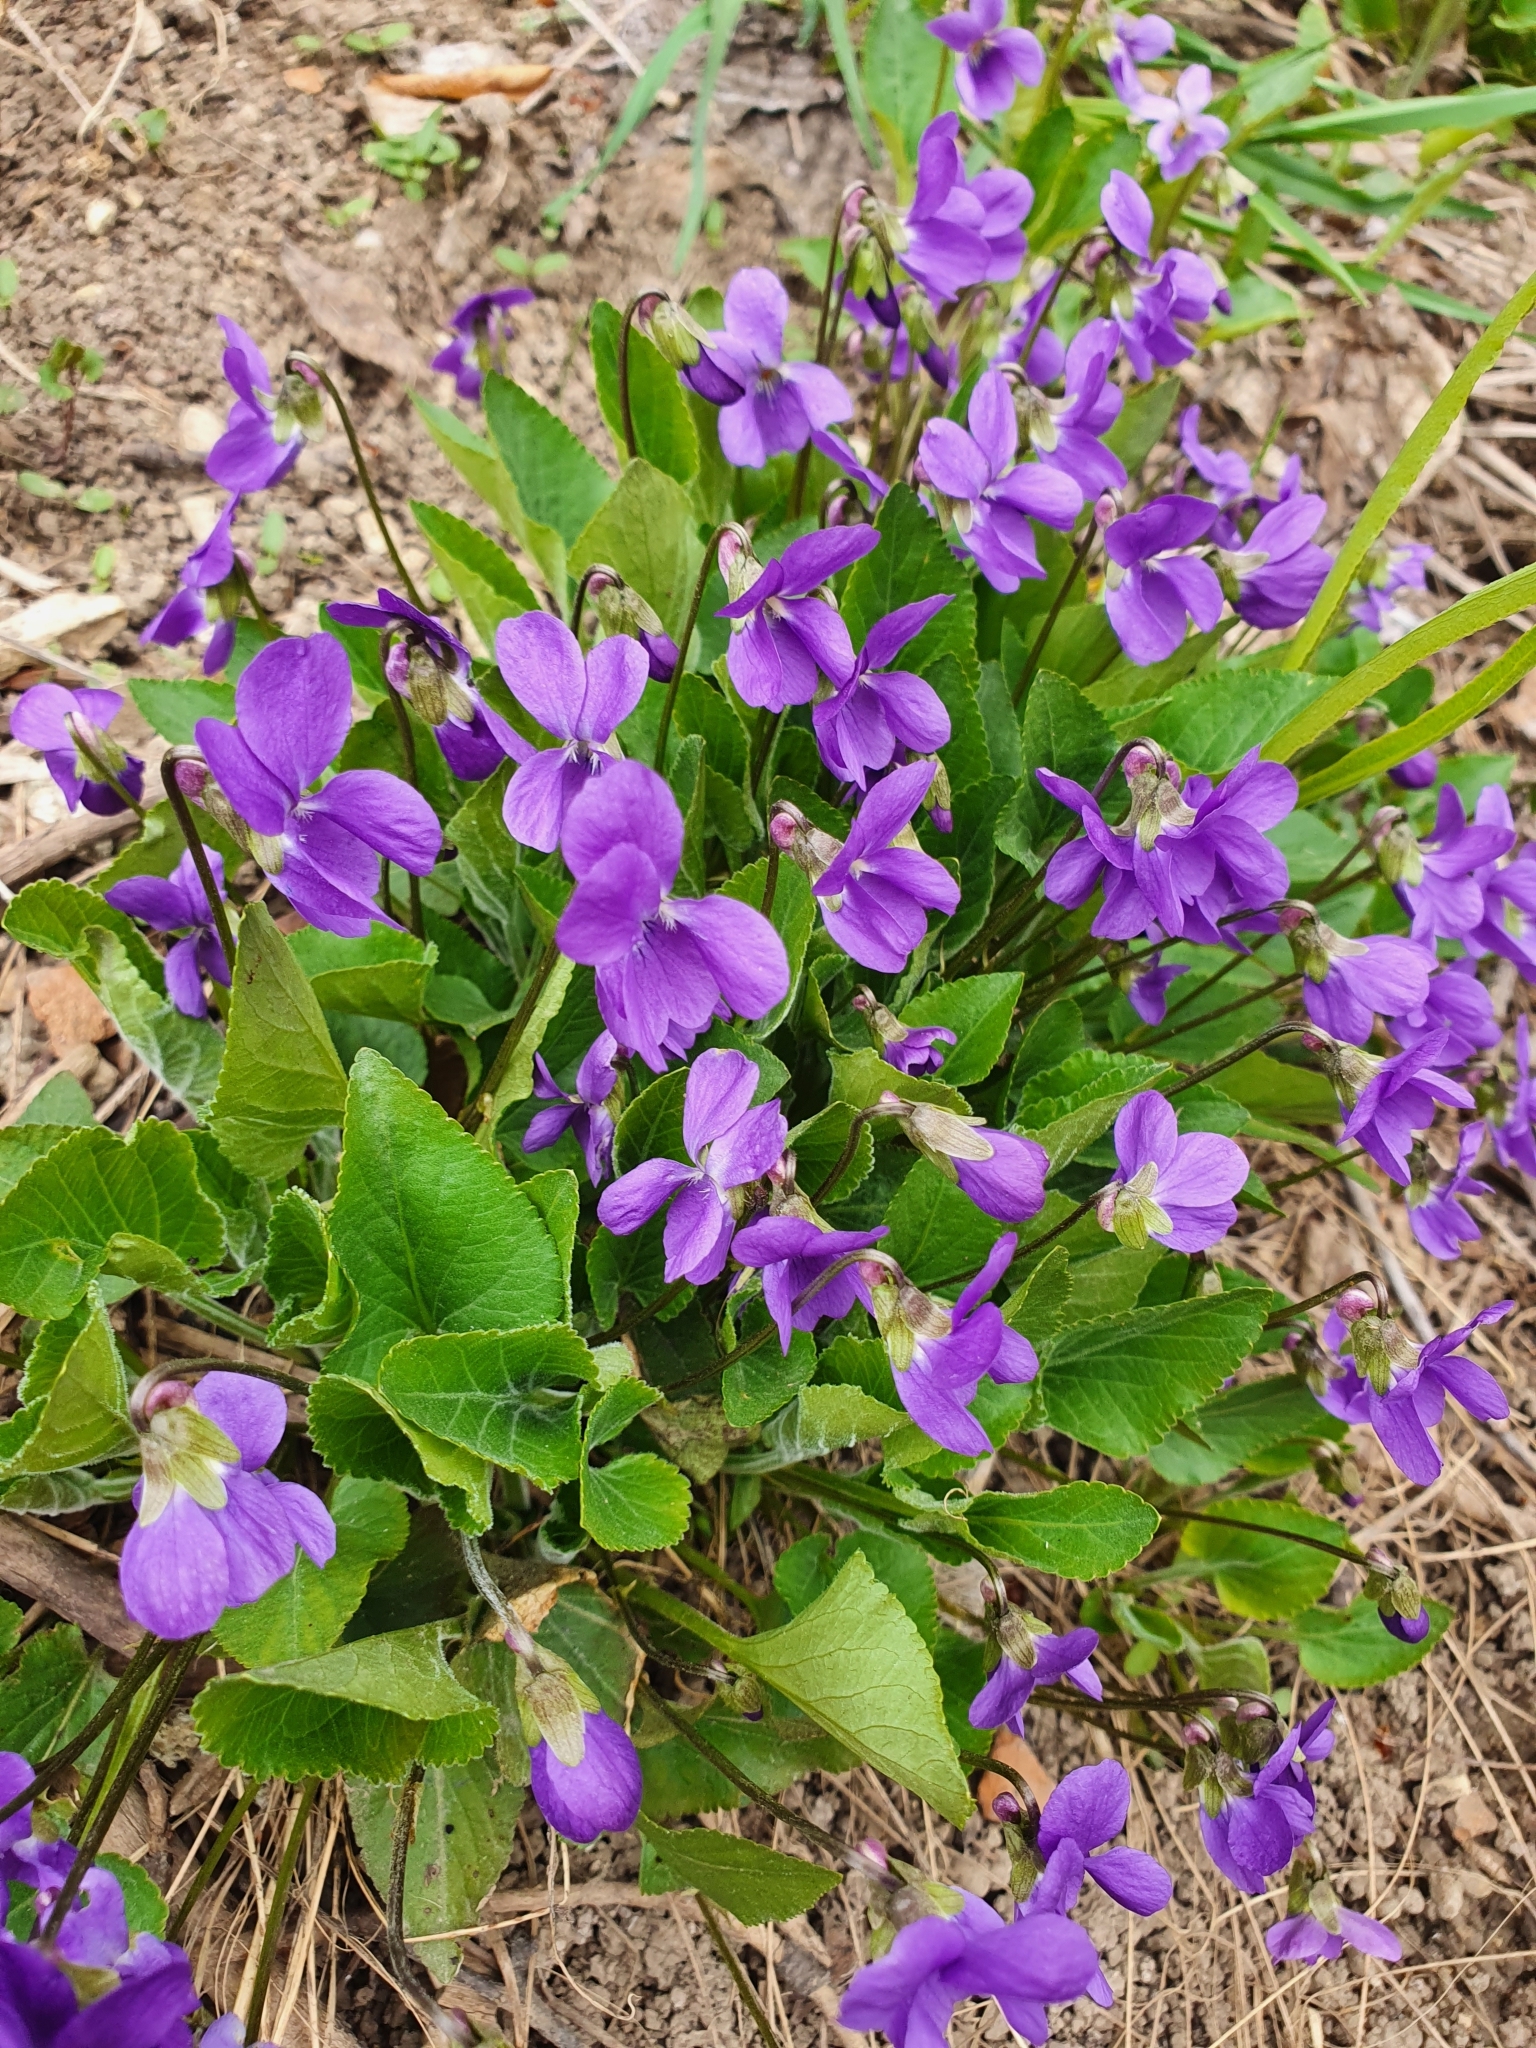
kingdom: Plantae
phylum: Tracheophyta
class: Magnoliopsida
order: Malpighiales
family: Violaceae
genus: Viola
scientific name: Viola ambigua
